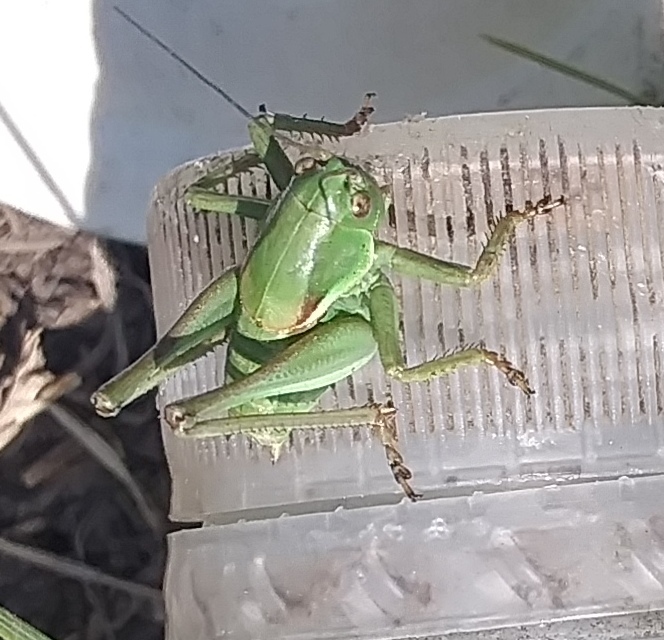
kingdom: Animalia
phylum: Arthropoda
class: Insecta
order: Orthoptera
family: Tettigoniidae
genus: Anabrus
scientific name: Anabrus simplex
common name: Mormon cricket
